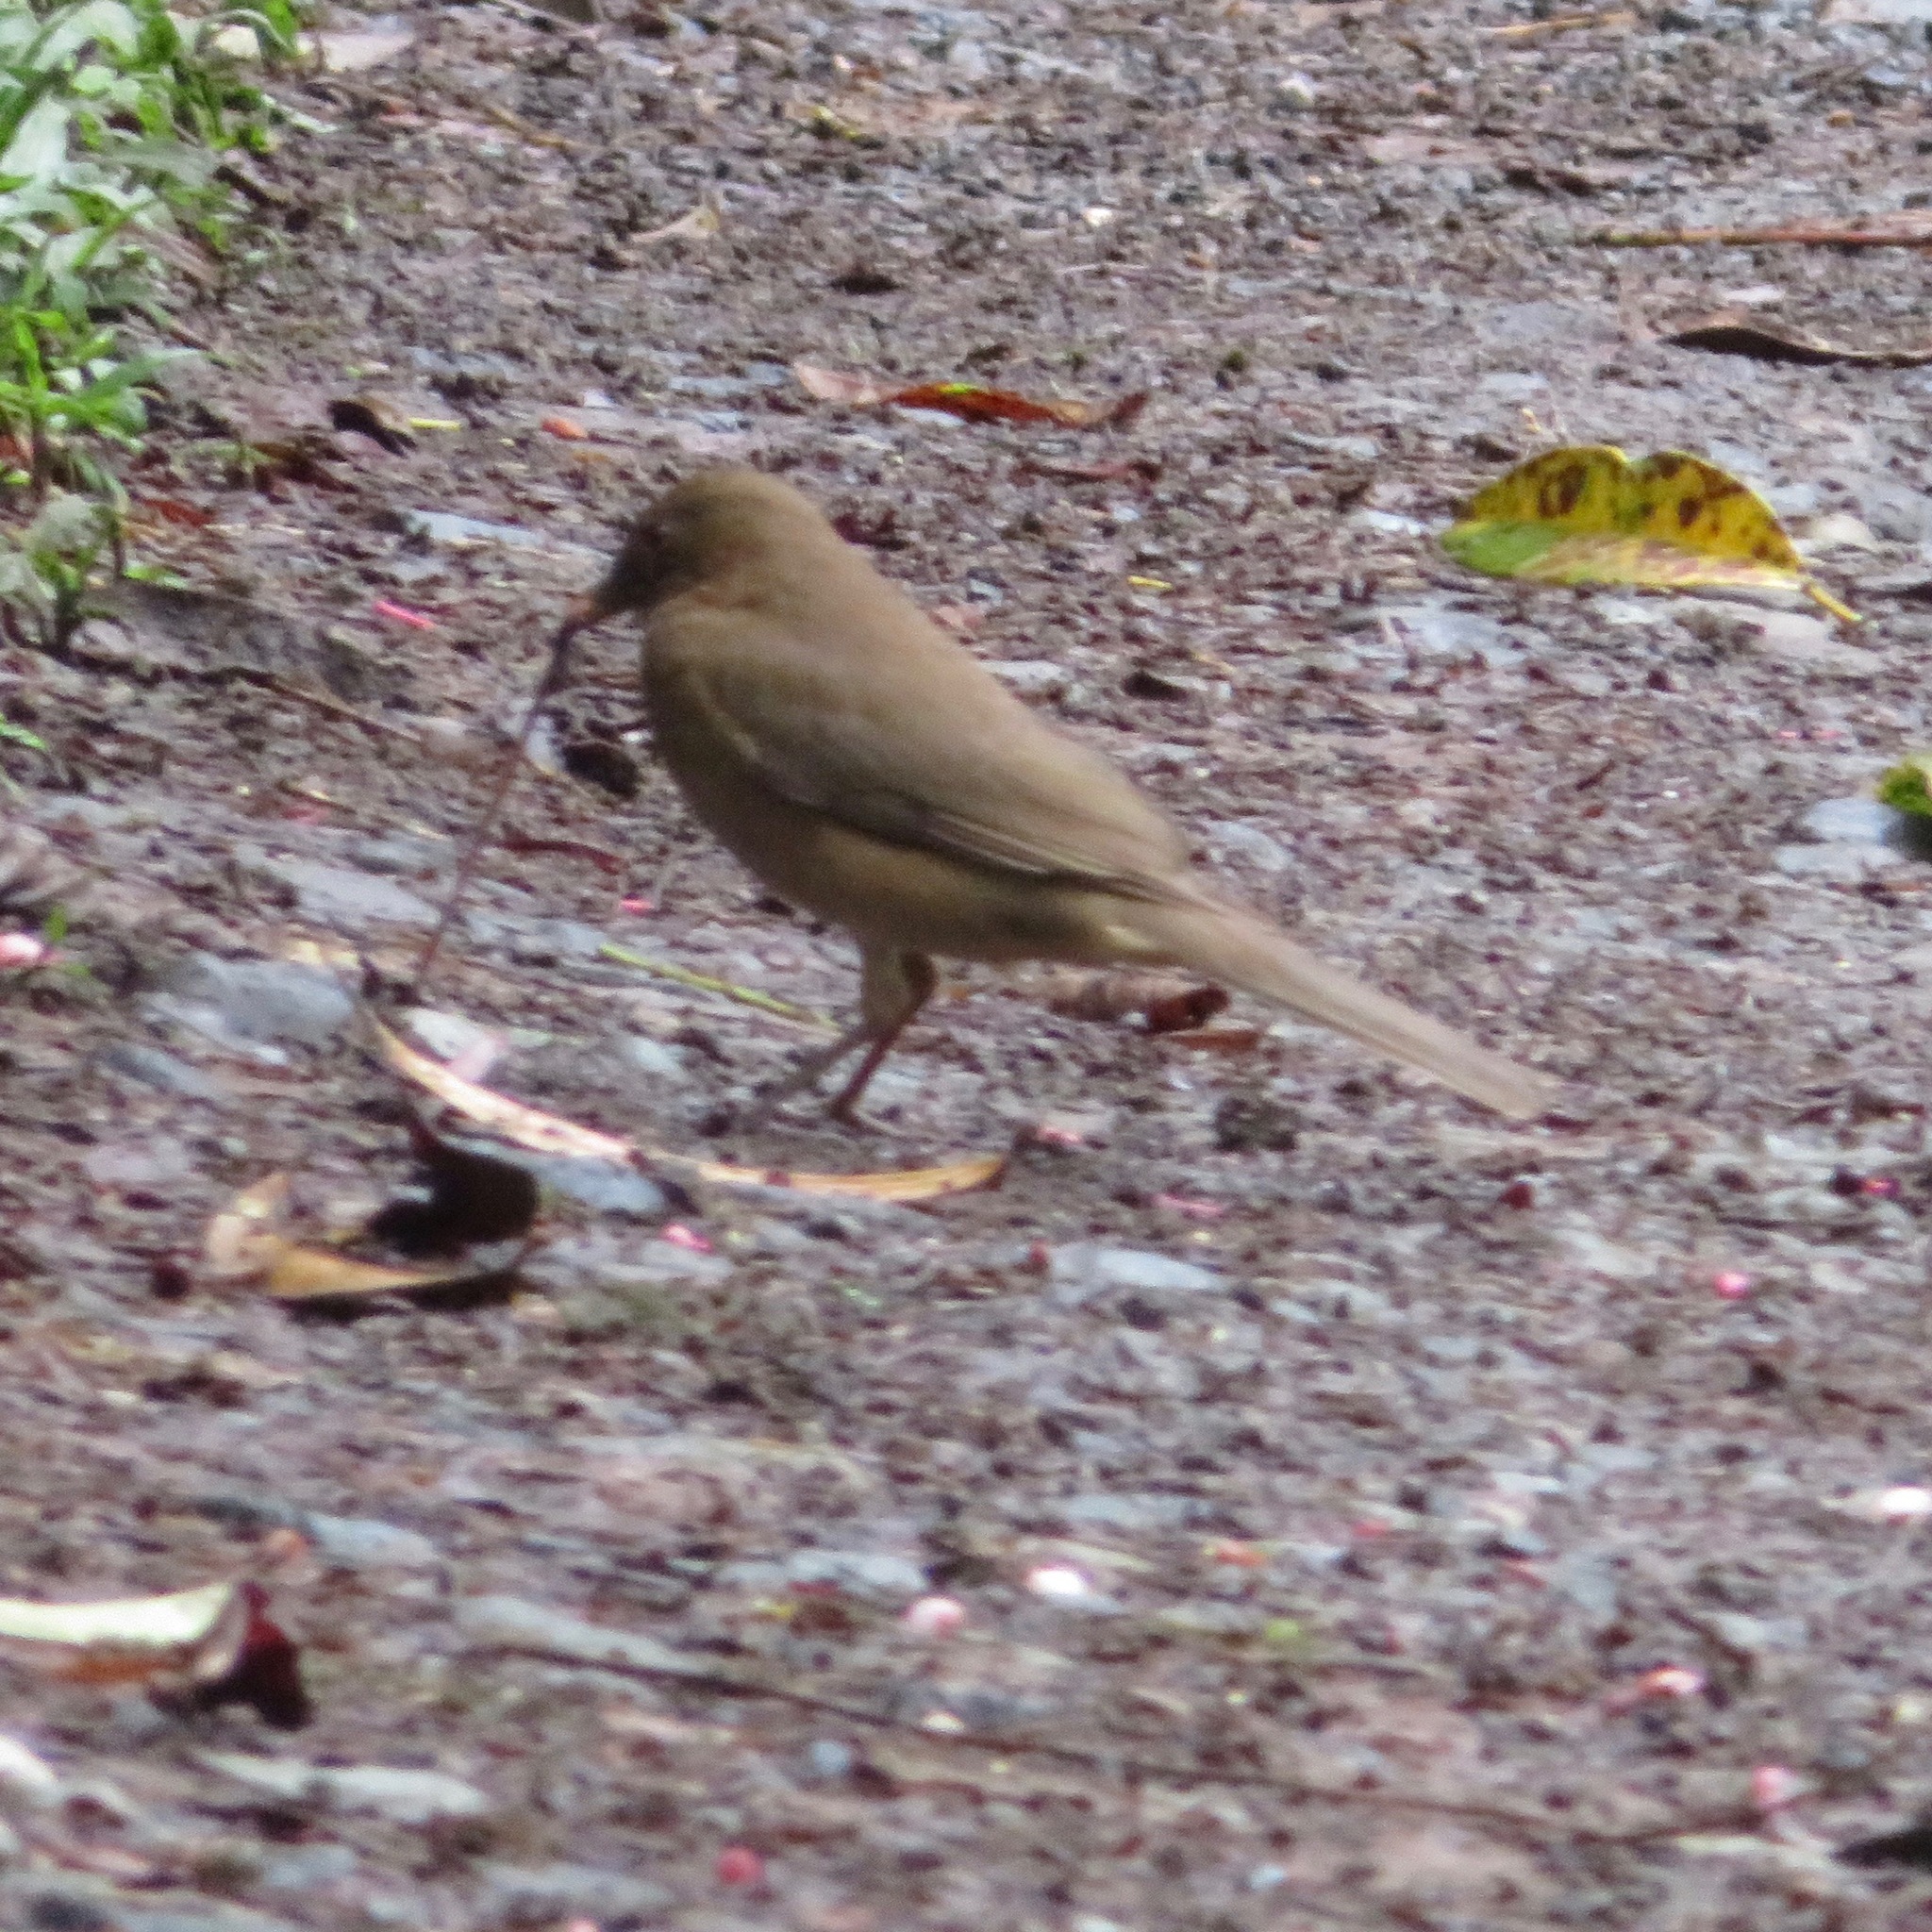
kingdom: Animalia
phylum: Chordata
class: Aves
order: Passeriformes
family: Turdidae
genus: Turdus
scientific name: Turdus grayi
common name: Clay-colored thrush
